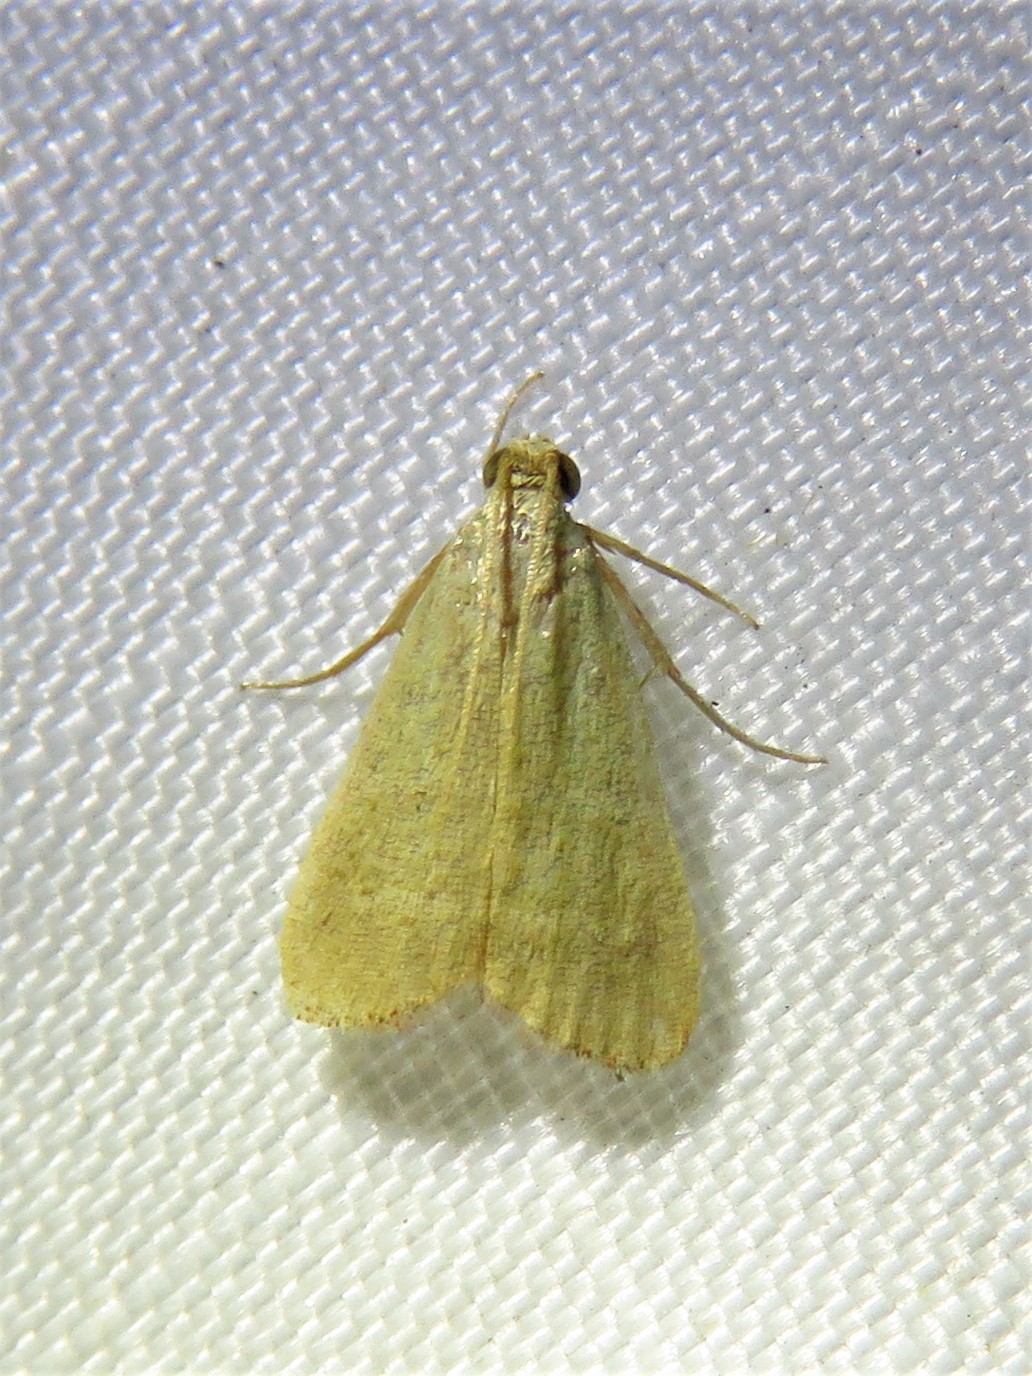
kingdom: Animalia
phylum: Arthropoda
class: Insecta
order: Lepidoptera
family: Pyralidae
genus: Arta
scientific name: Arta olivalis
